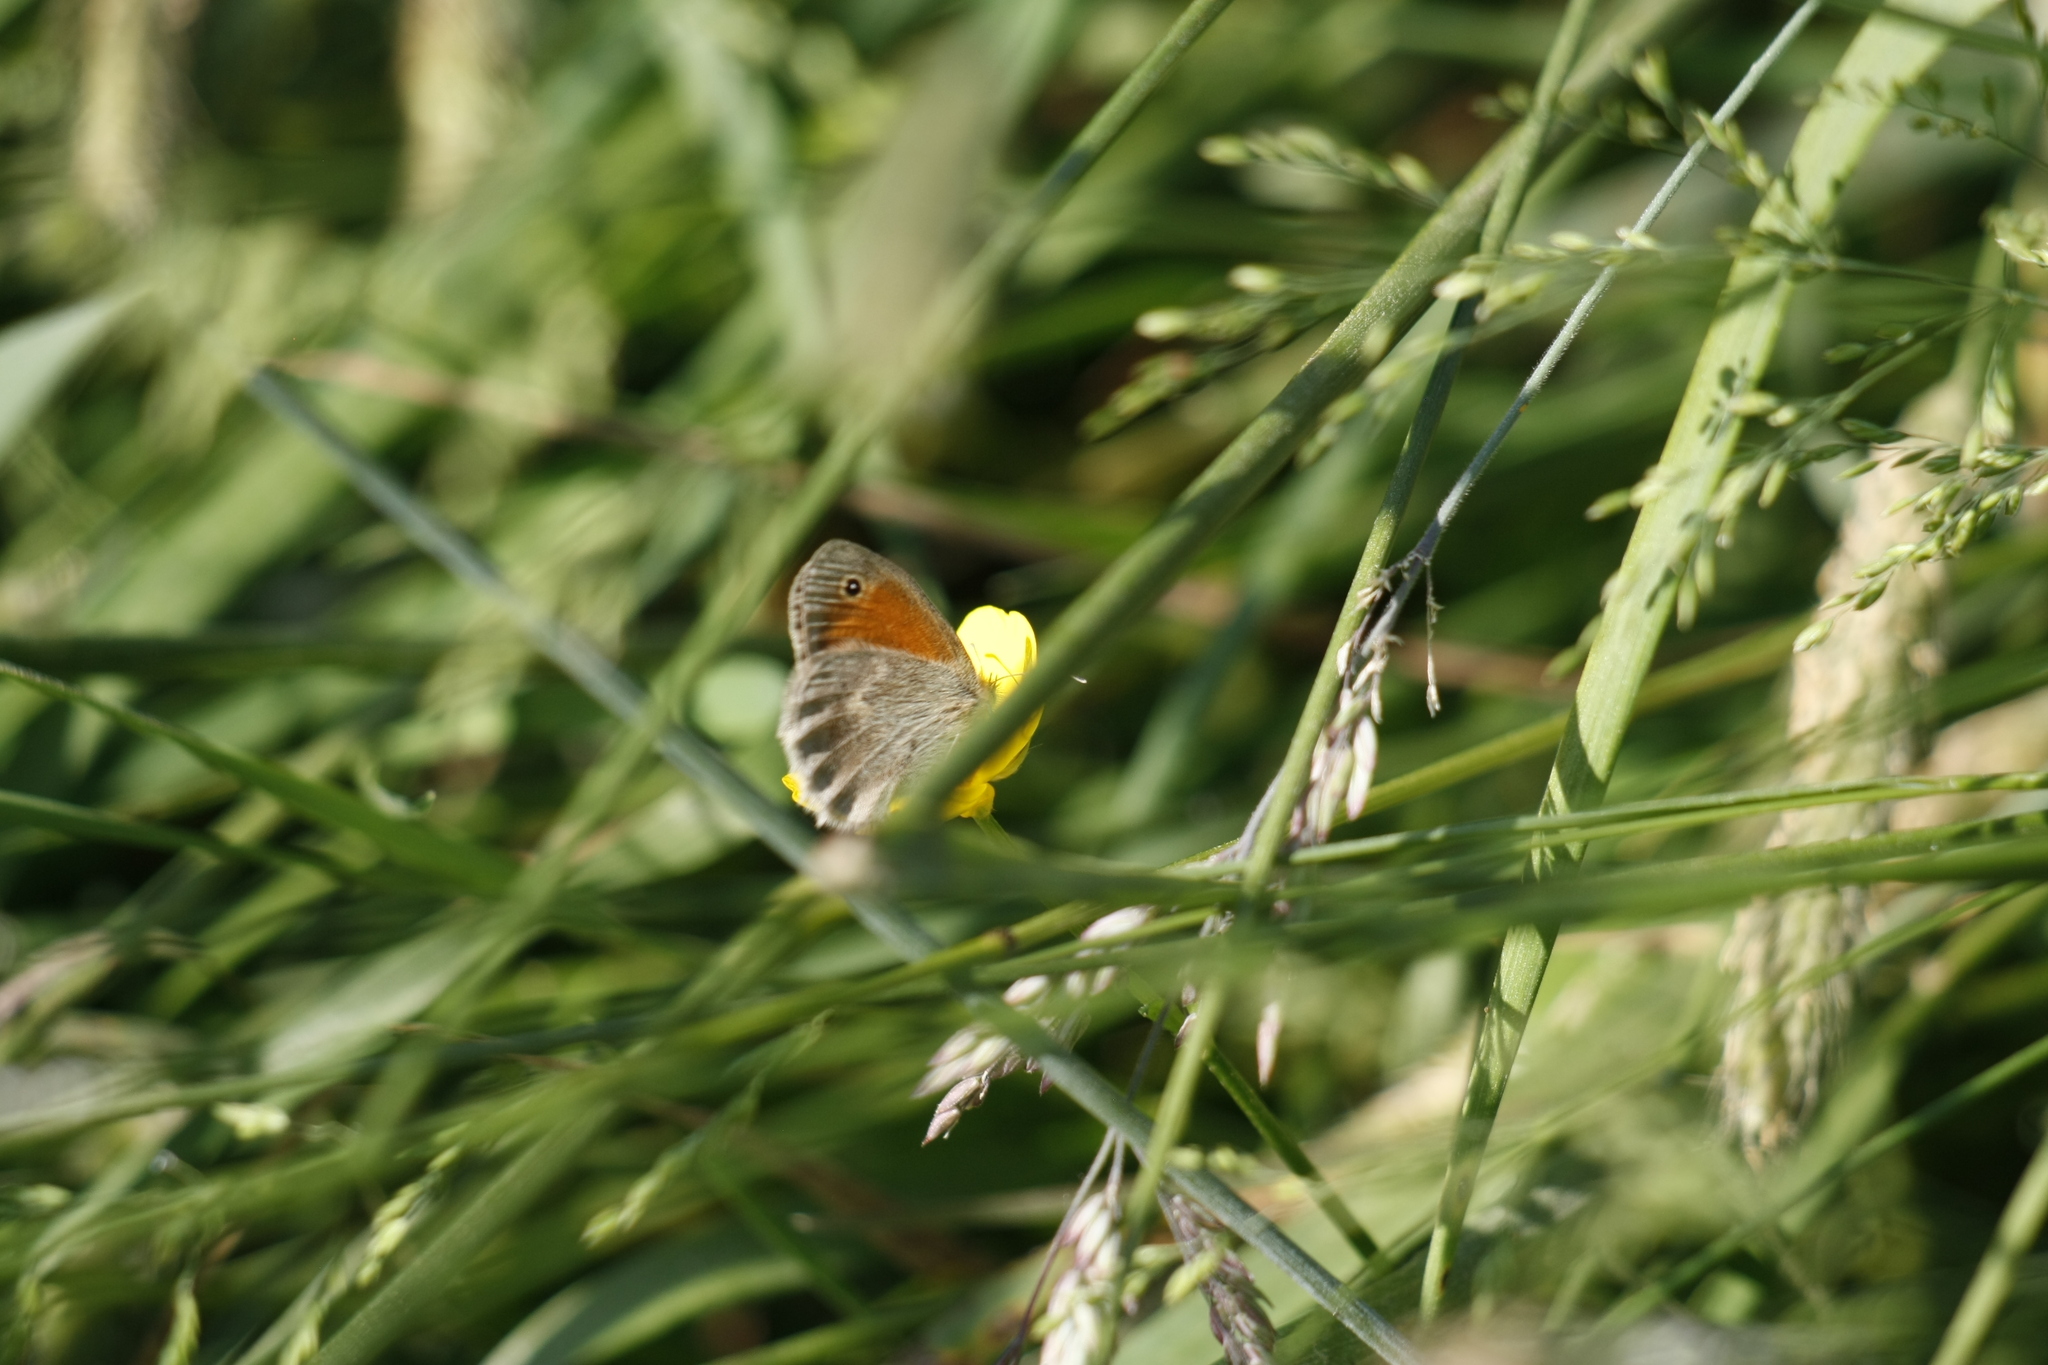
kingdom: Animalia
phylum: Arthropoda
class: Insecta
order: Lepidoptera
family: Nymphalidae
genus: Coenonympha
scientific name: Coenonympha pamphilus
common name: Small heath
